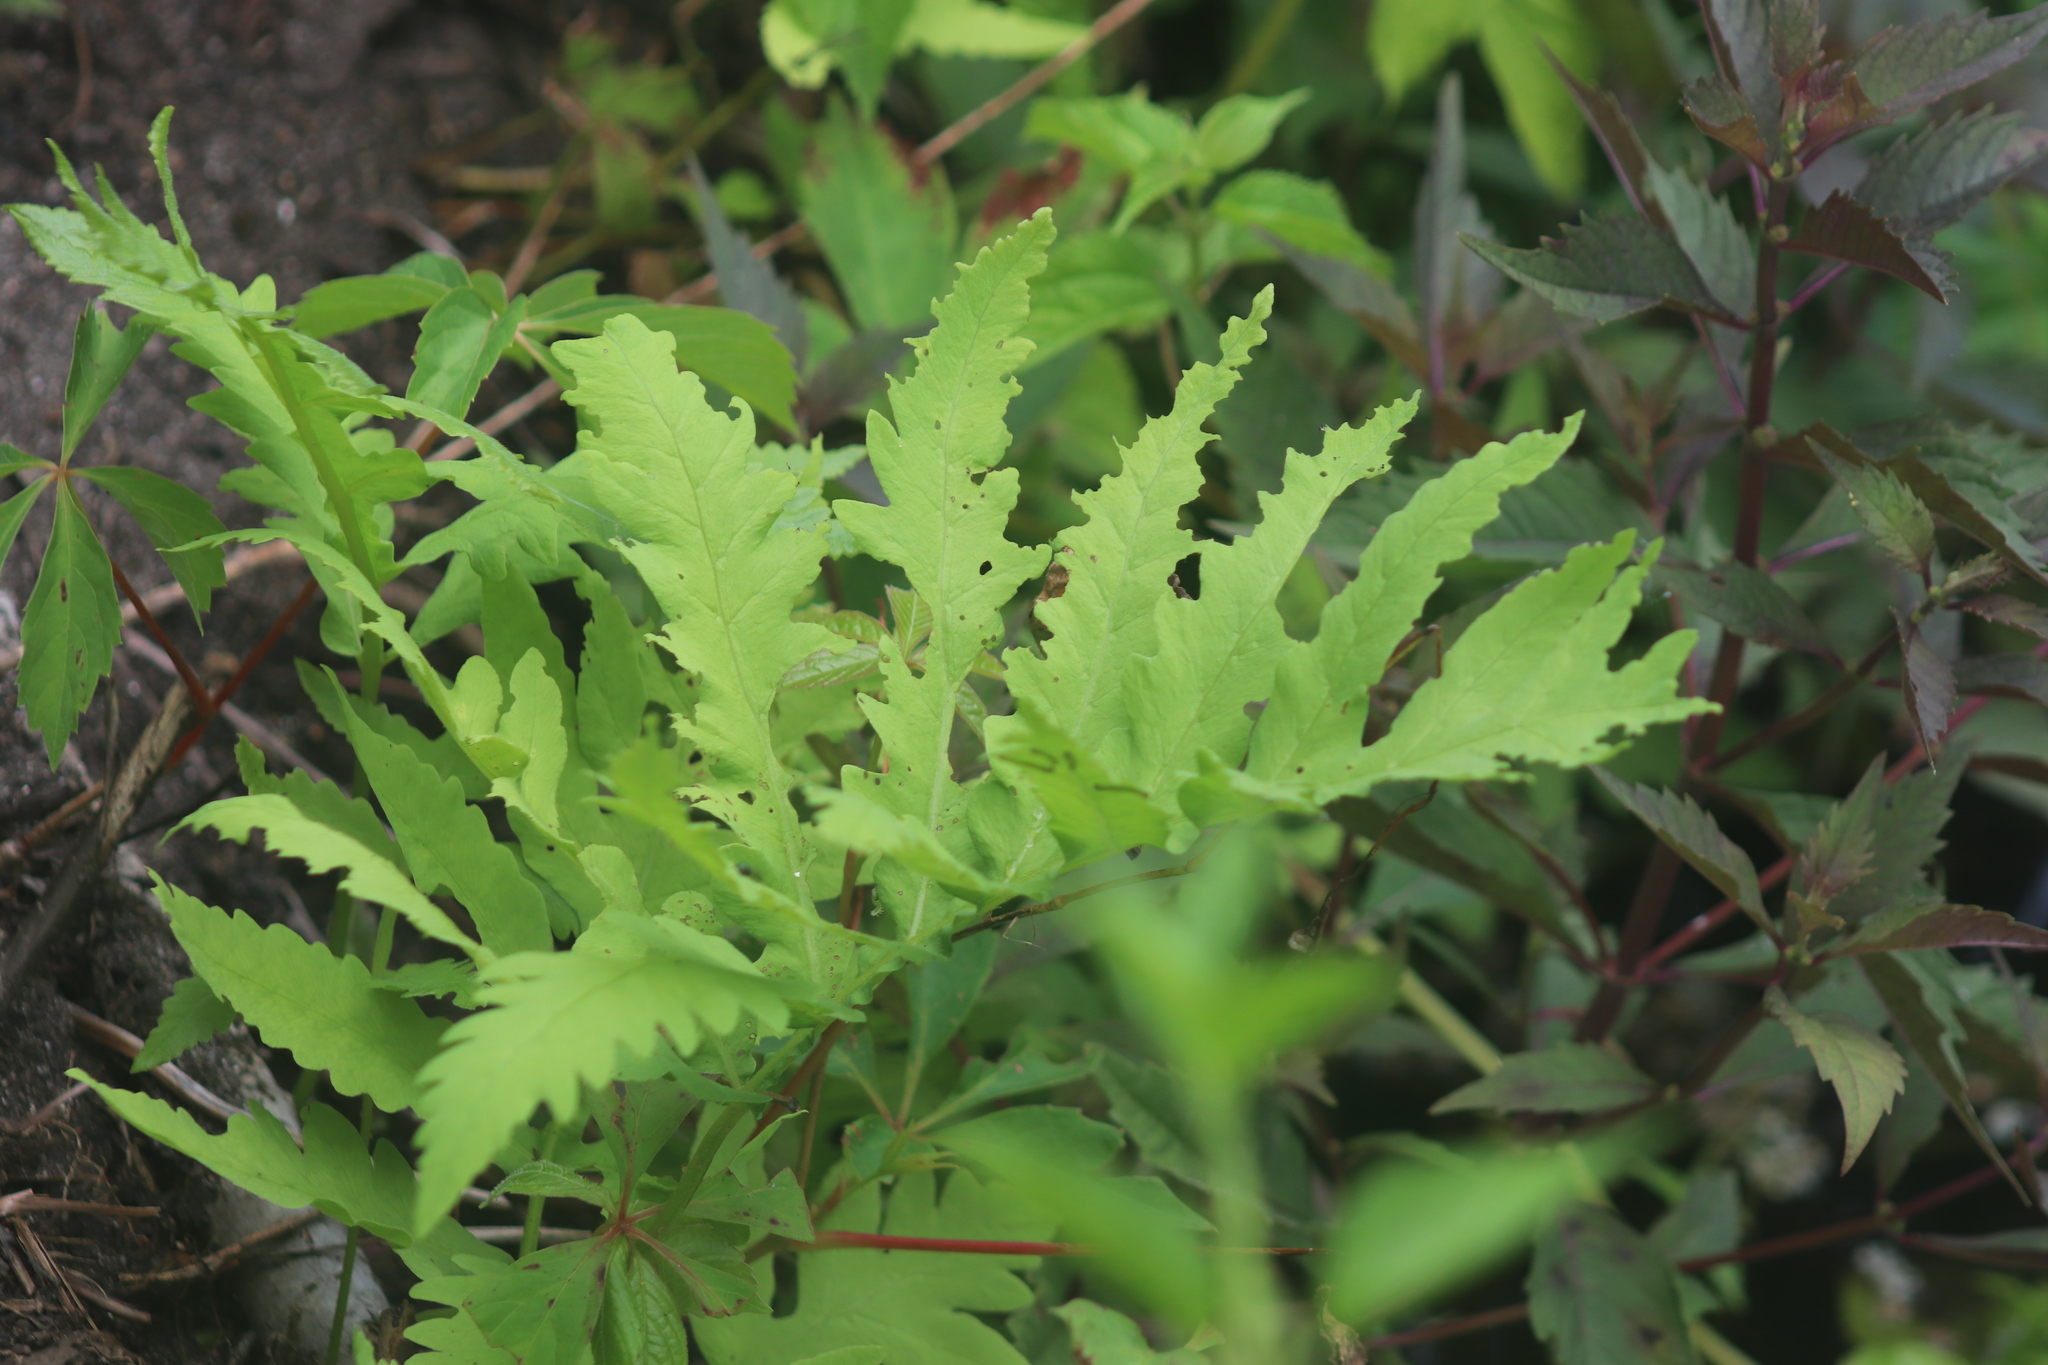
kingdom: Plantae
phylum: Tracheophyta
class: Polypodiopsida
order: Polypodiales
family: Onocleaceae
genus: Onoclea
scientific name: Onoclea sensibilis
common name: Sensitive fern
